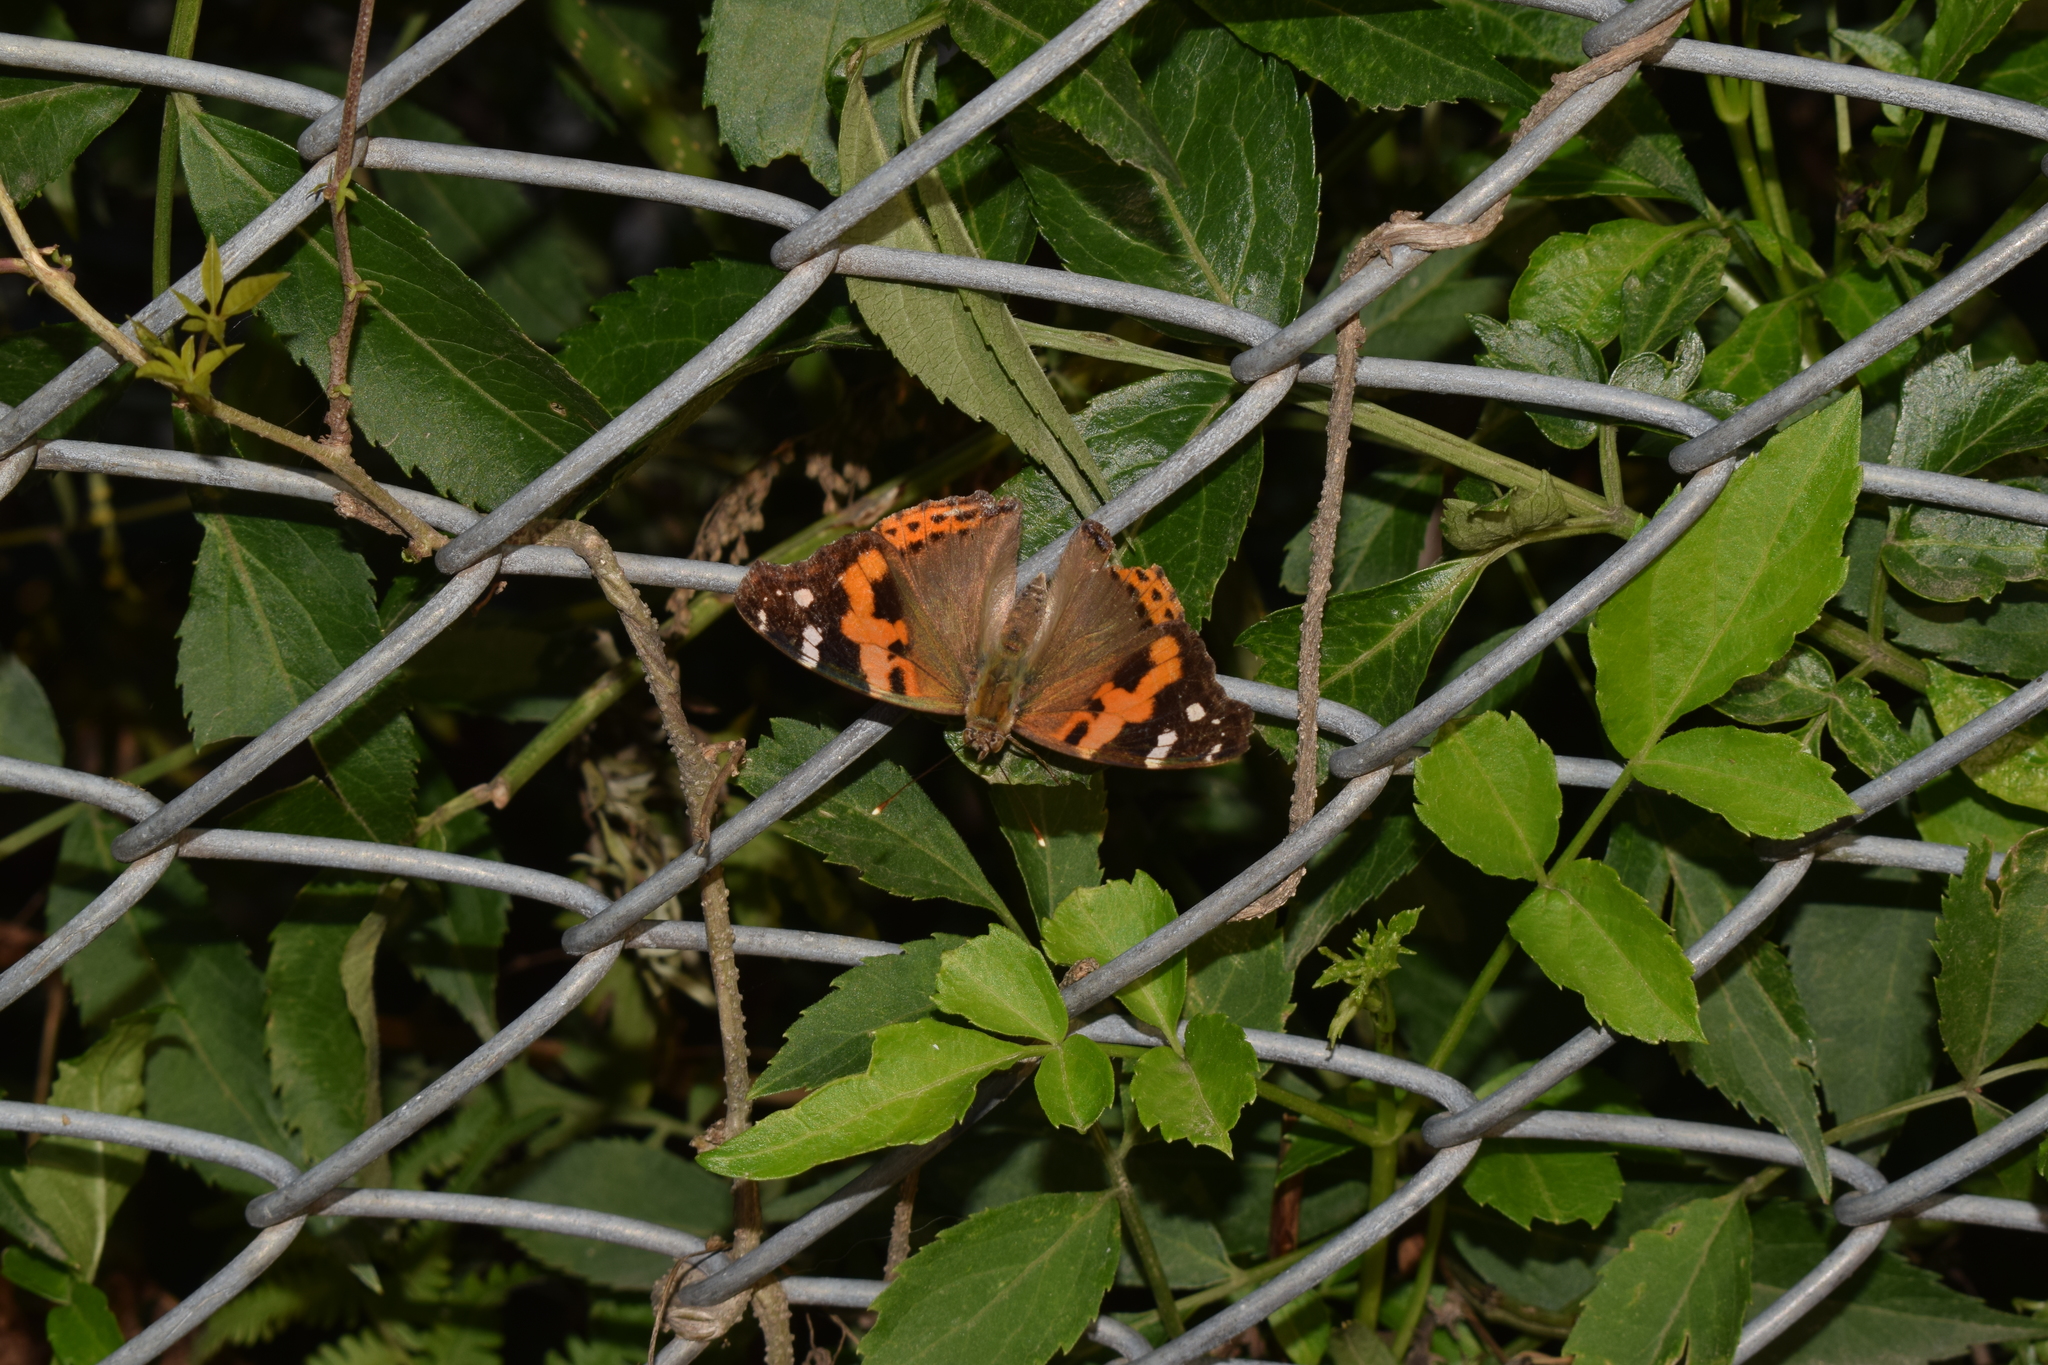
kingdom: Animalia
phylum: Arthropoda
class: Insecta
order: Lepidoptera
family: Nymphalidae
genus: Vanessa
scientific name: Vanessa indica
